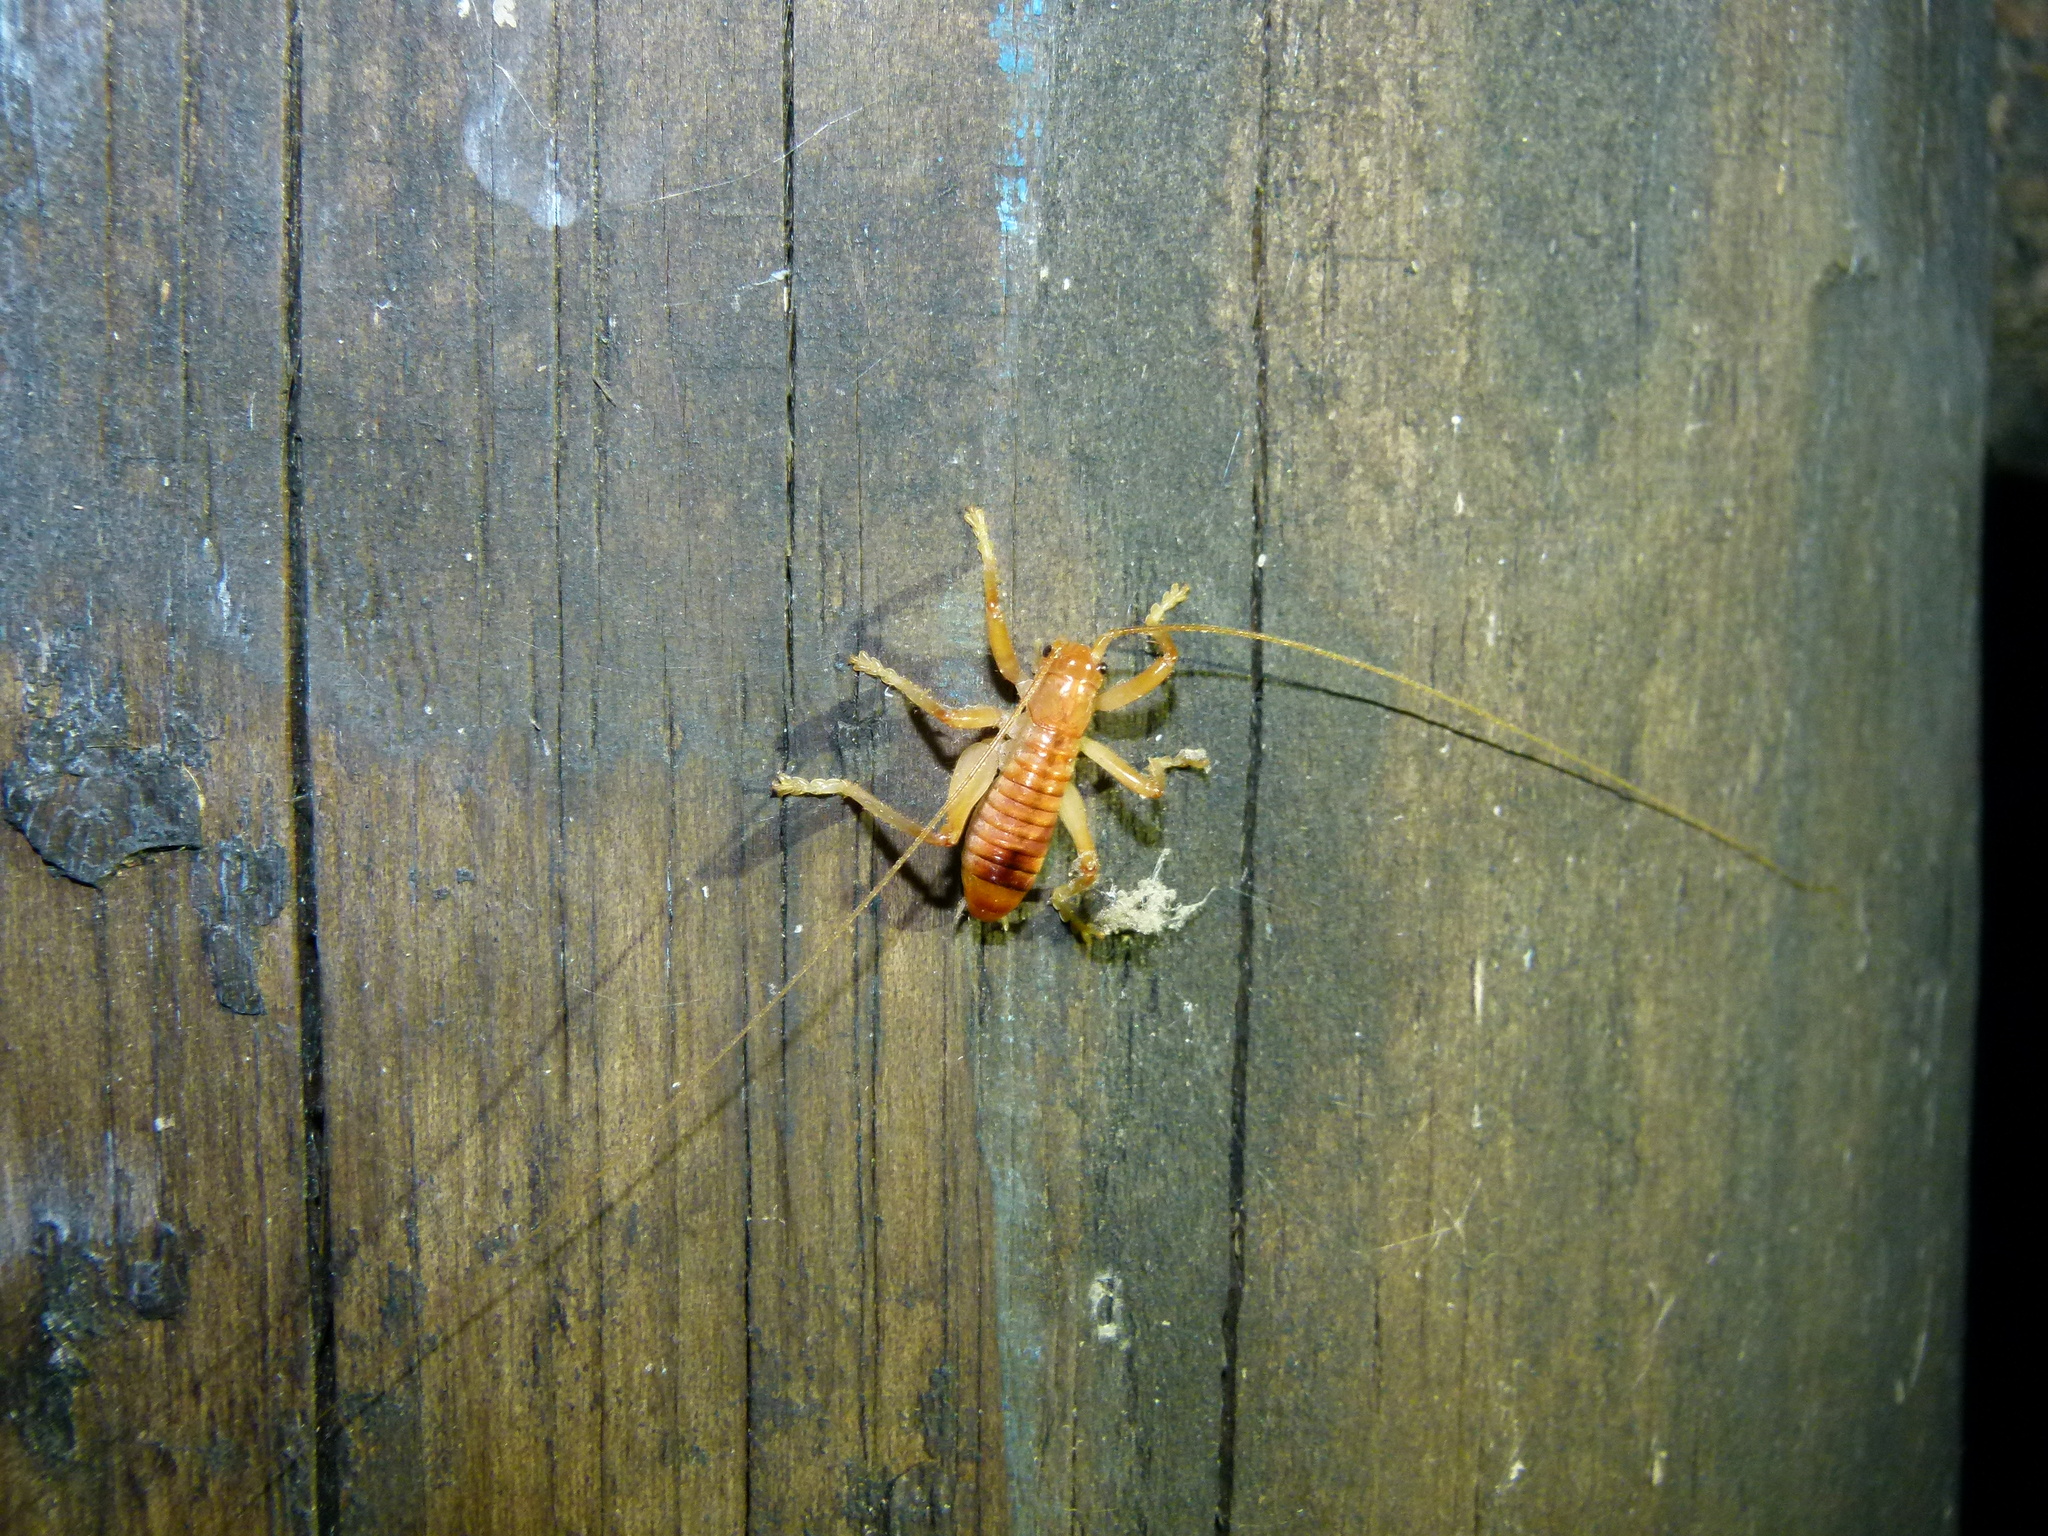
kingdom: Animalia
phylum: Arthropoda
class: Insecta
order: Orthoptera
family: Gryllacrididae
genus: Camptonotus
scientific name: Camptonotus carolinensis
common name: Carolina leaf-roller
